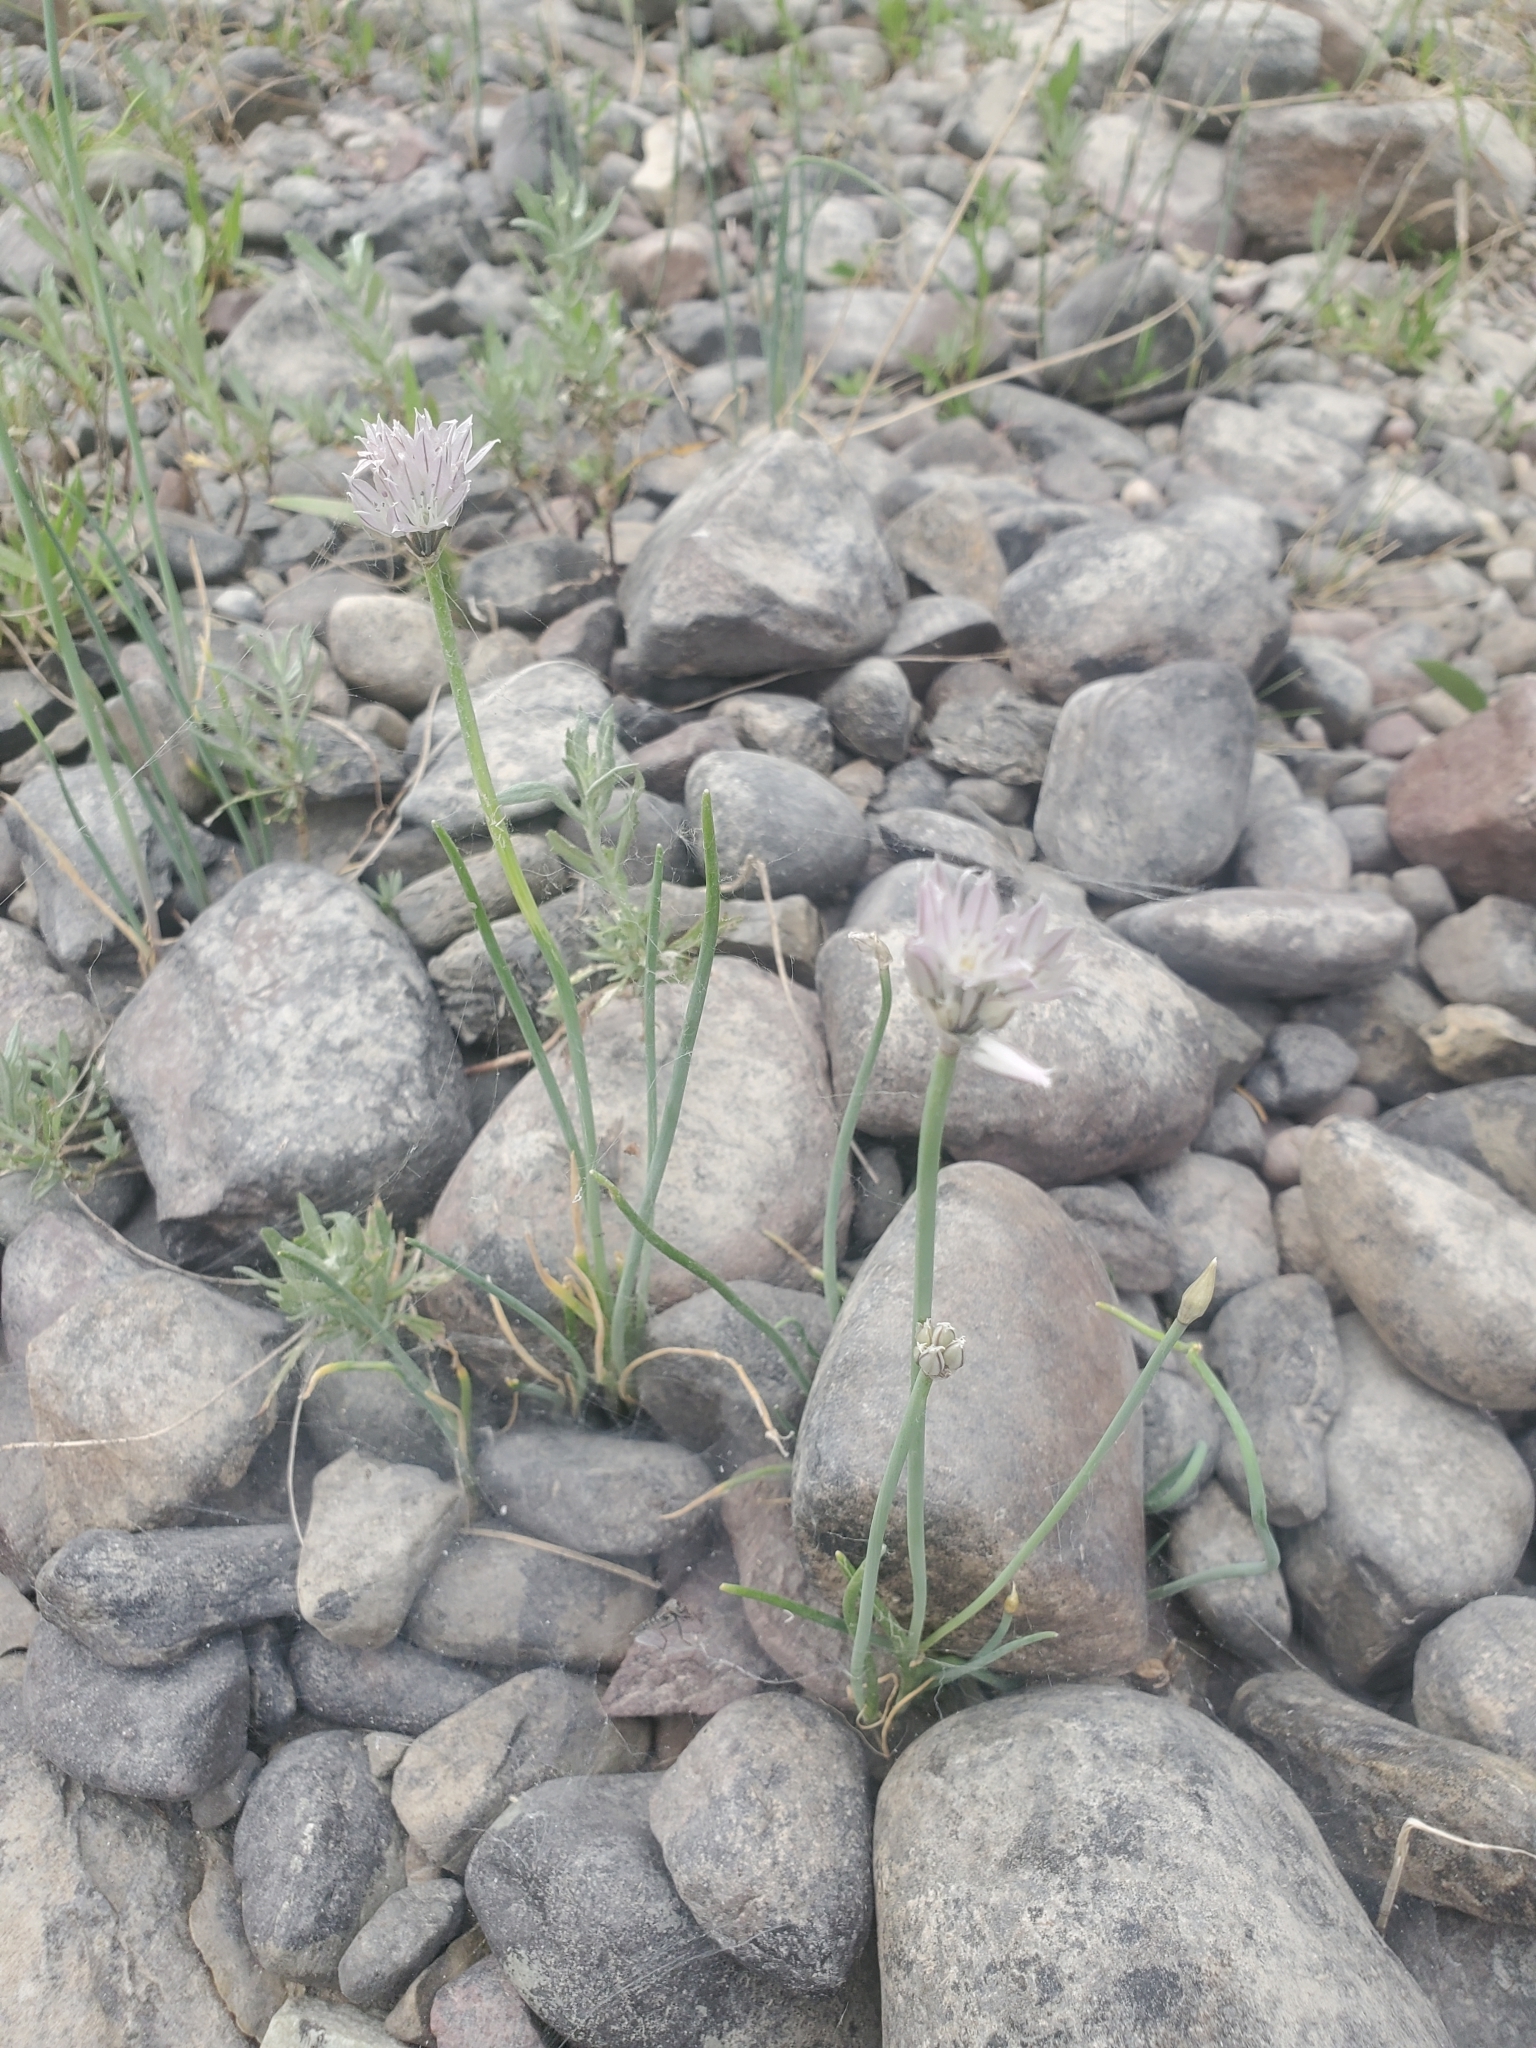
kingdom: Plantae
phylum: Tracheophyta
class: Liliopsida
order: Asparagales
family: Amaryllidaceae
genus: Allium
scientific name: Allium schoenoprasum
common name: Chives
